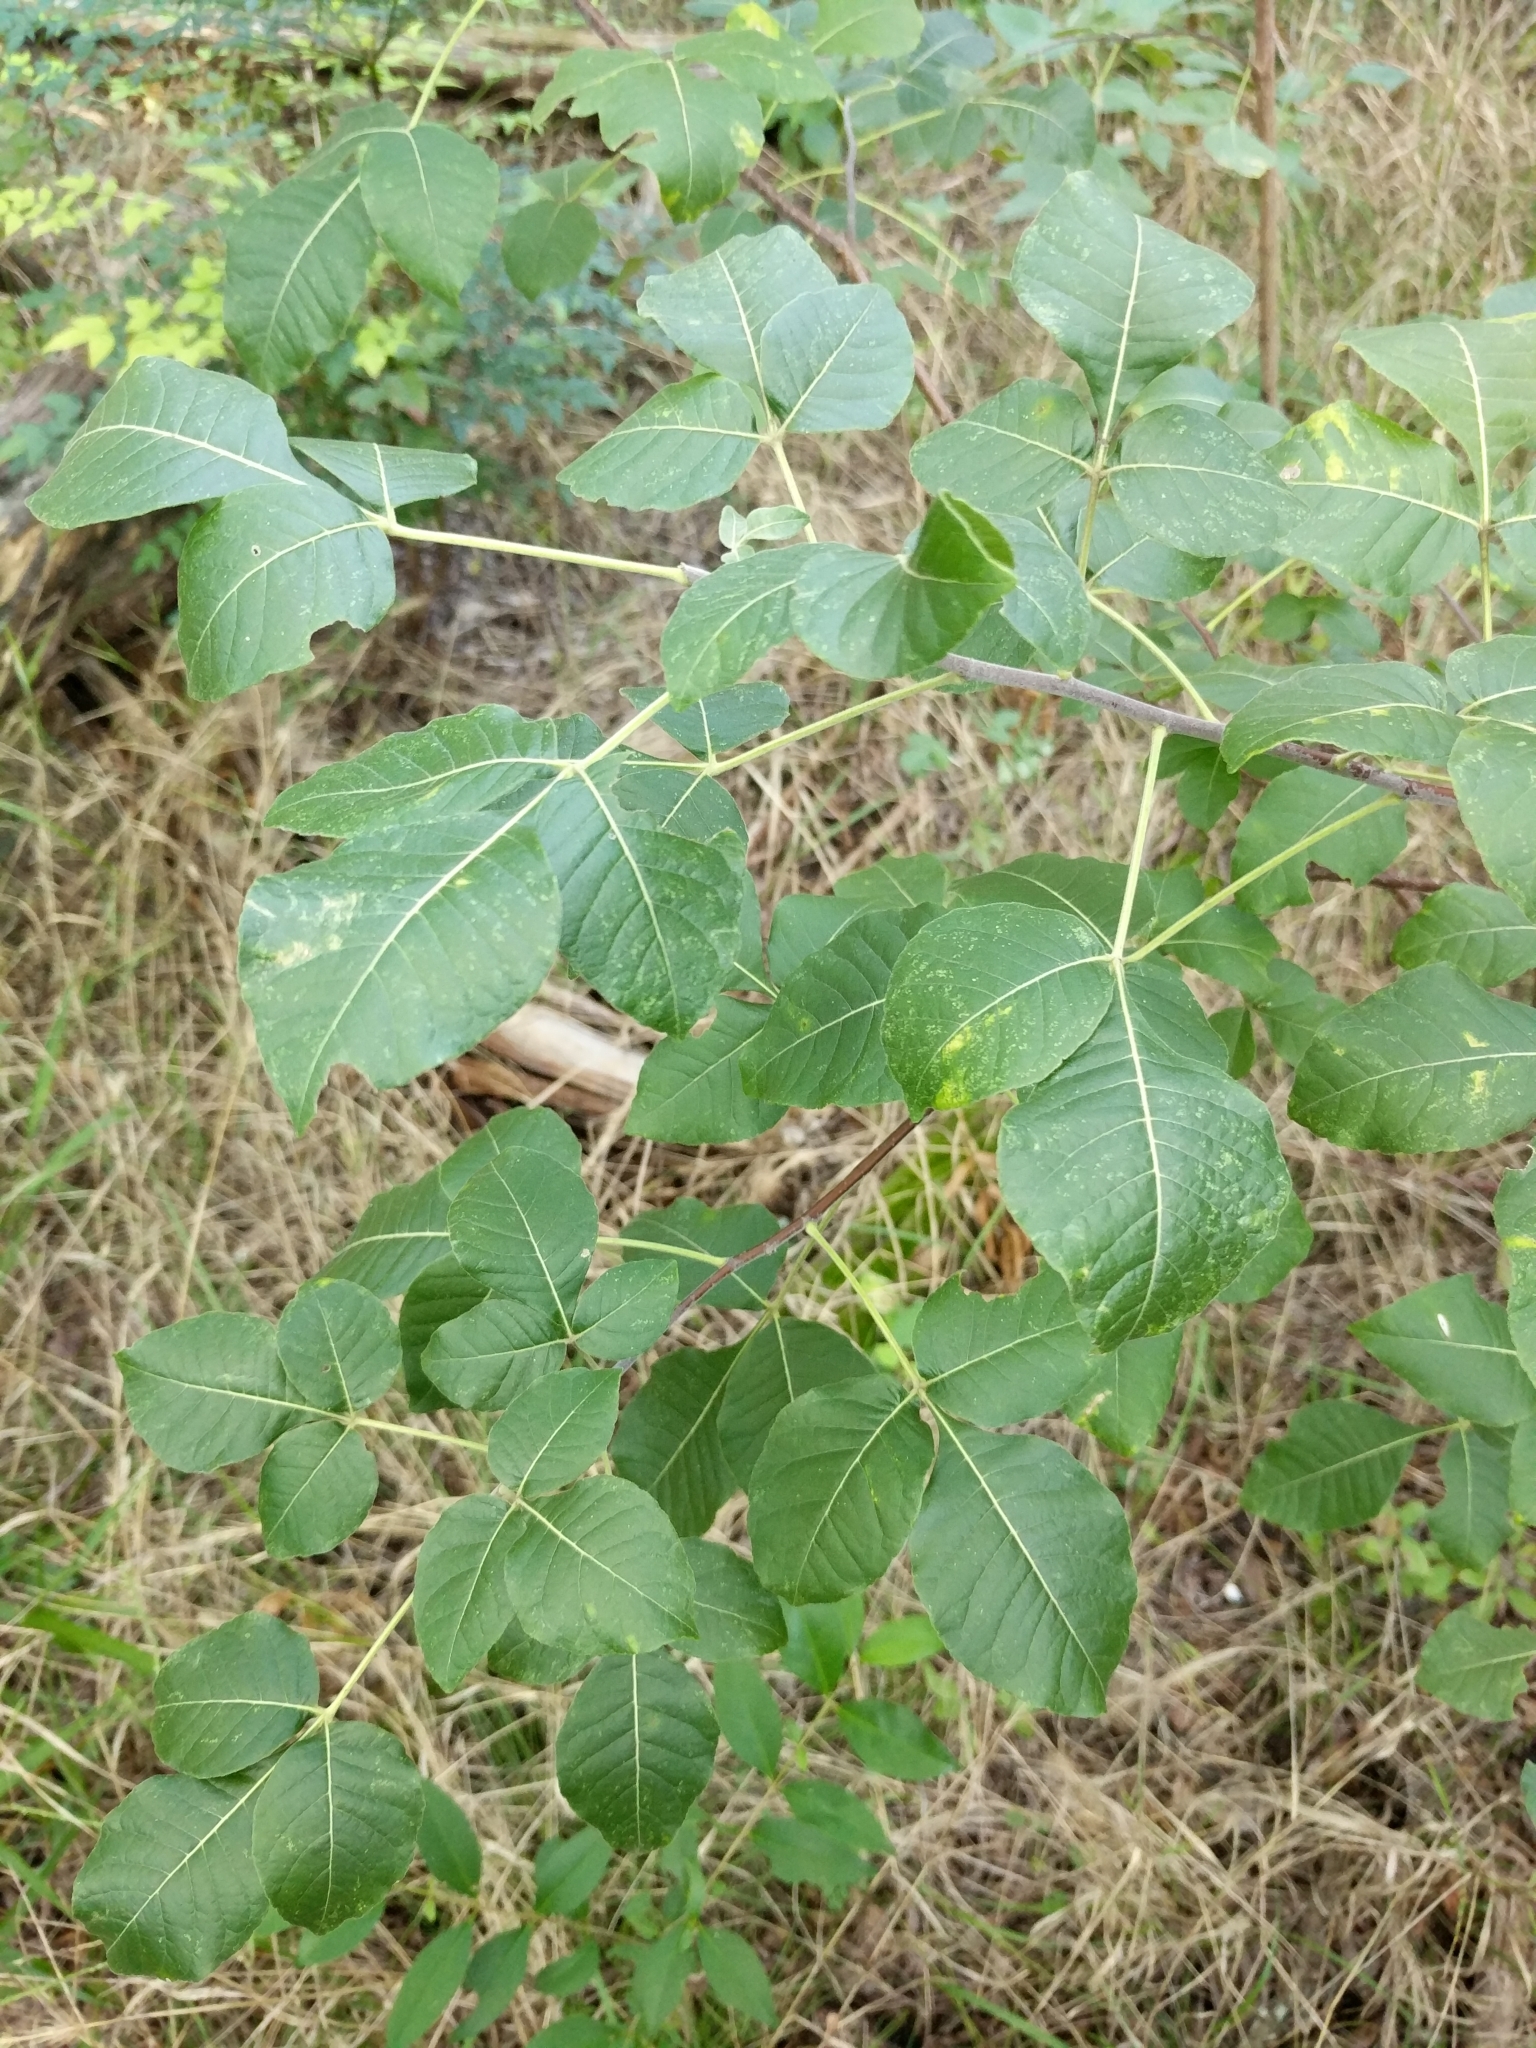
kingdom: Plantae
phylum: Tracheophyta
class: Magnoliopsida
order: Sapindales
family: Rutaceae
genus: Ptelea
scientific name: Ptelea trifoliata
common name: Common hop-tree
